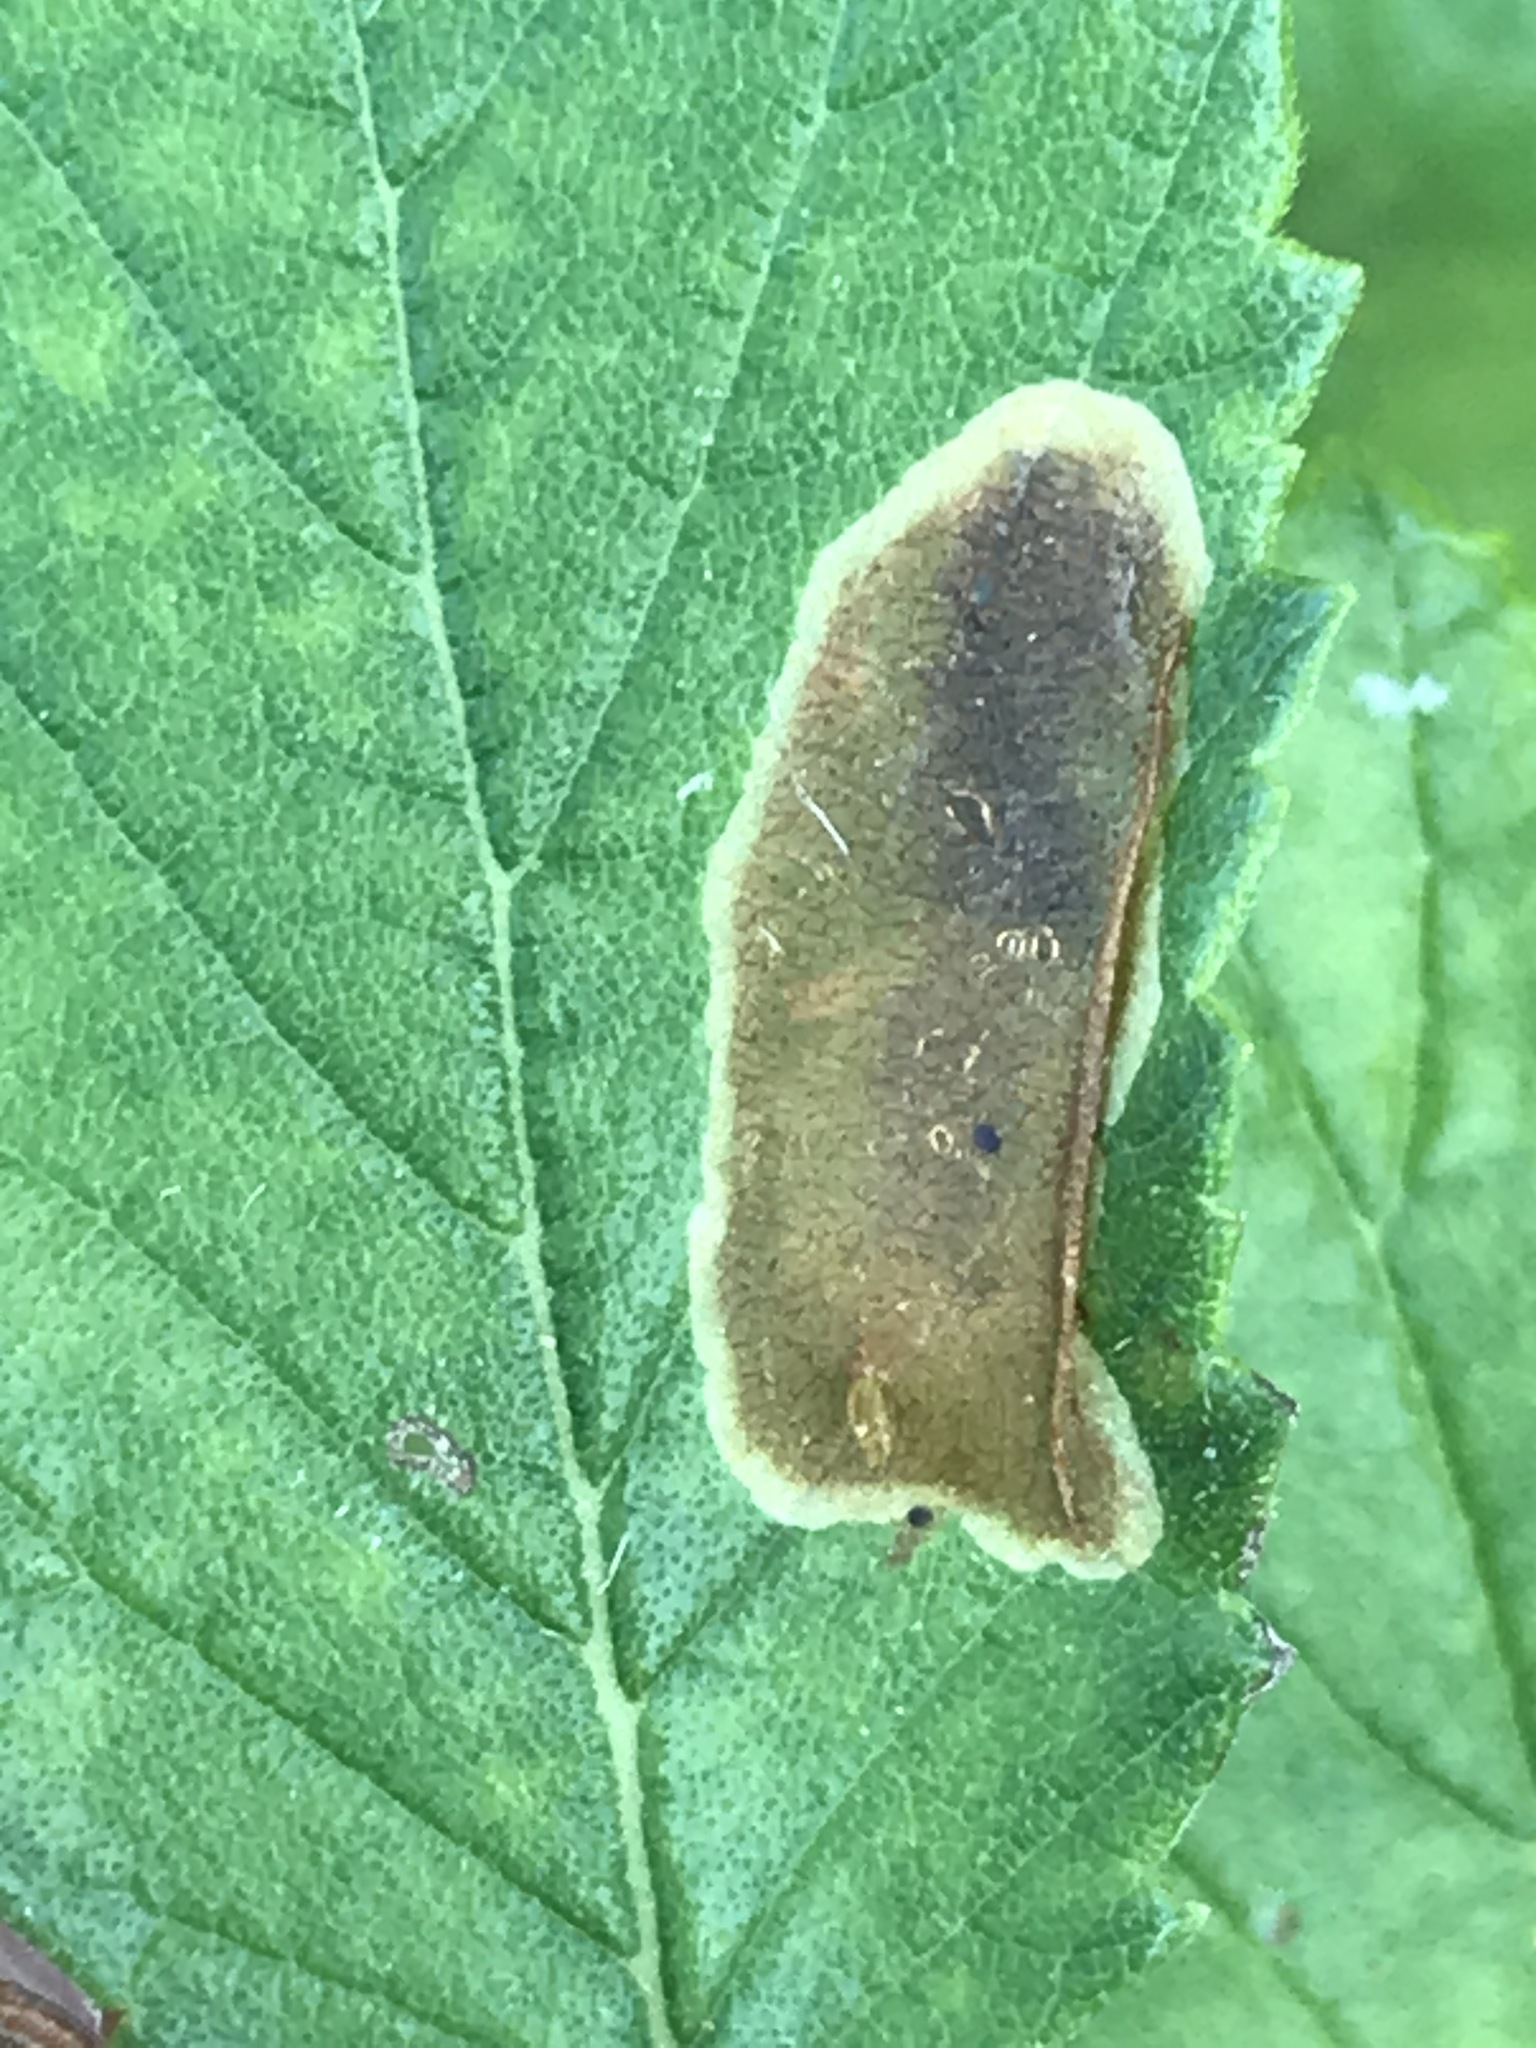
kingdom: Animalia
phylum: Arthropoda
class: Insecta
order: Lepidoptera
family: Gracillariidae
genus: Cameraria
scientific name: Cameraria ulmella
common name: Elm leafminer
